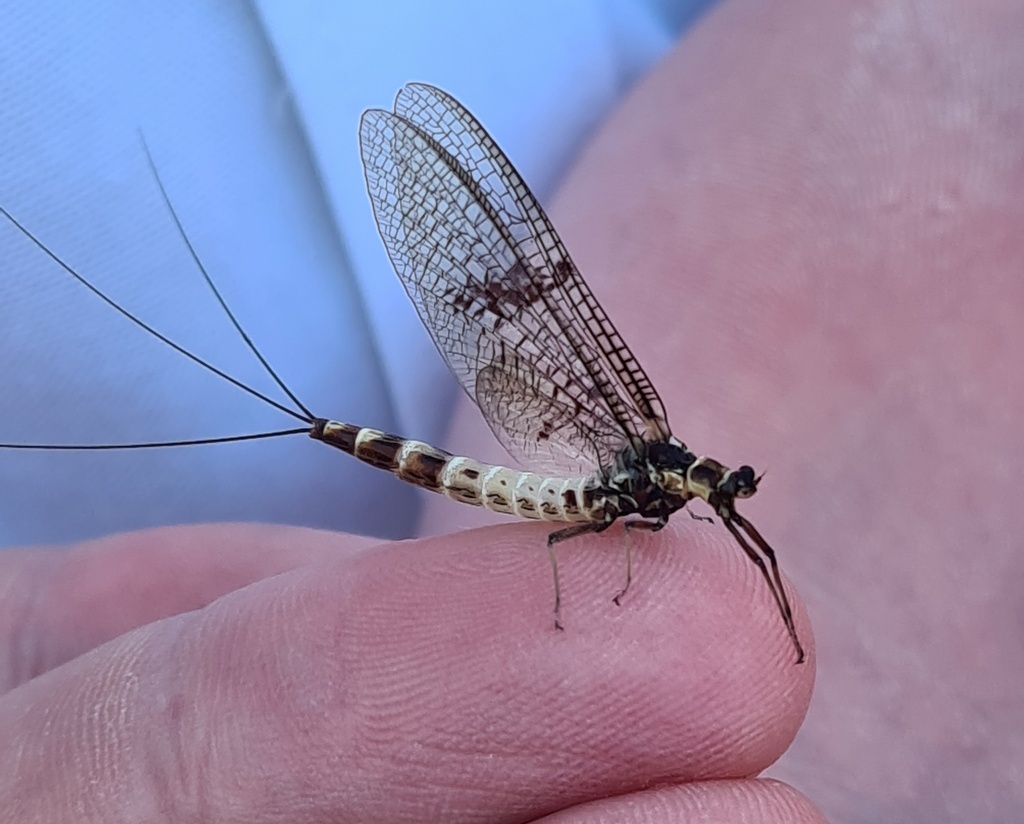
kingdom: Animalia
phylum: Arthropoda
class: Insecta
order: Ephemeroptera
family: Ephemeridae
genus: Ephemera
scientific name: Ephemera danica
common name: Green dun
